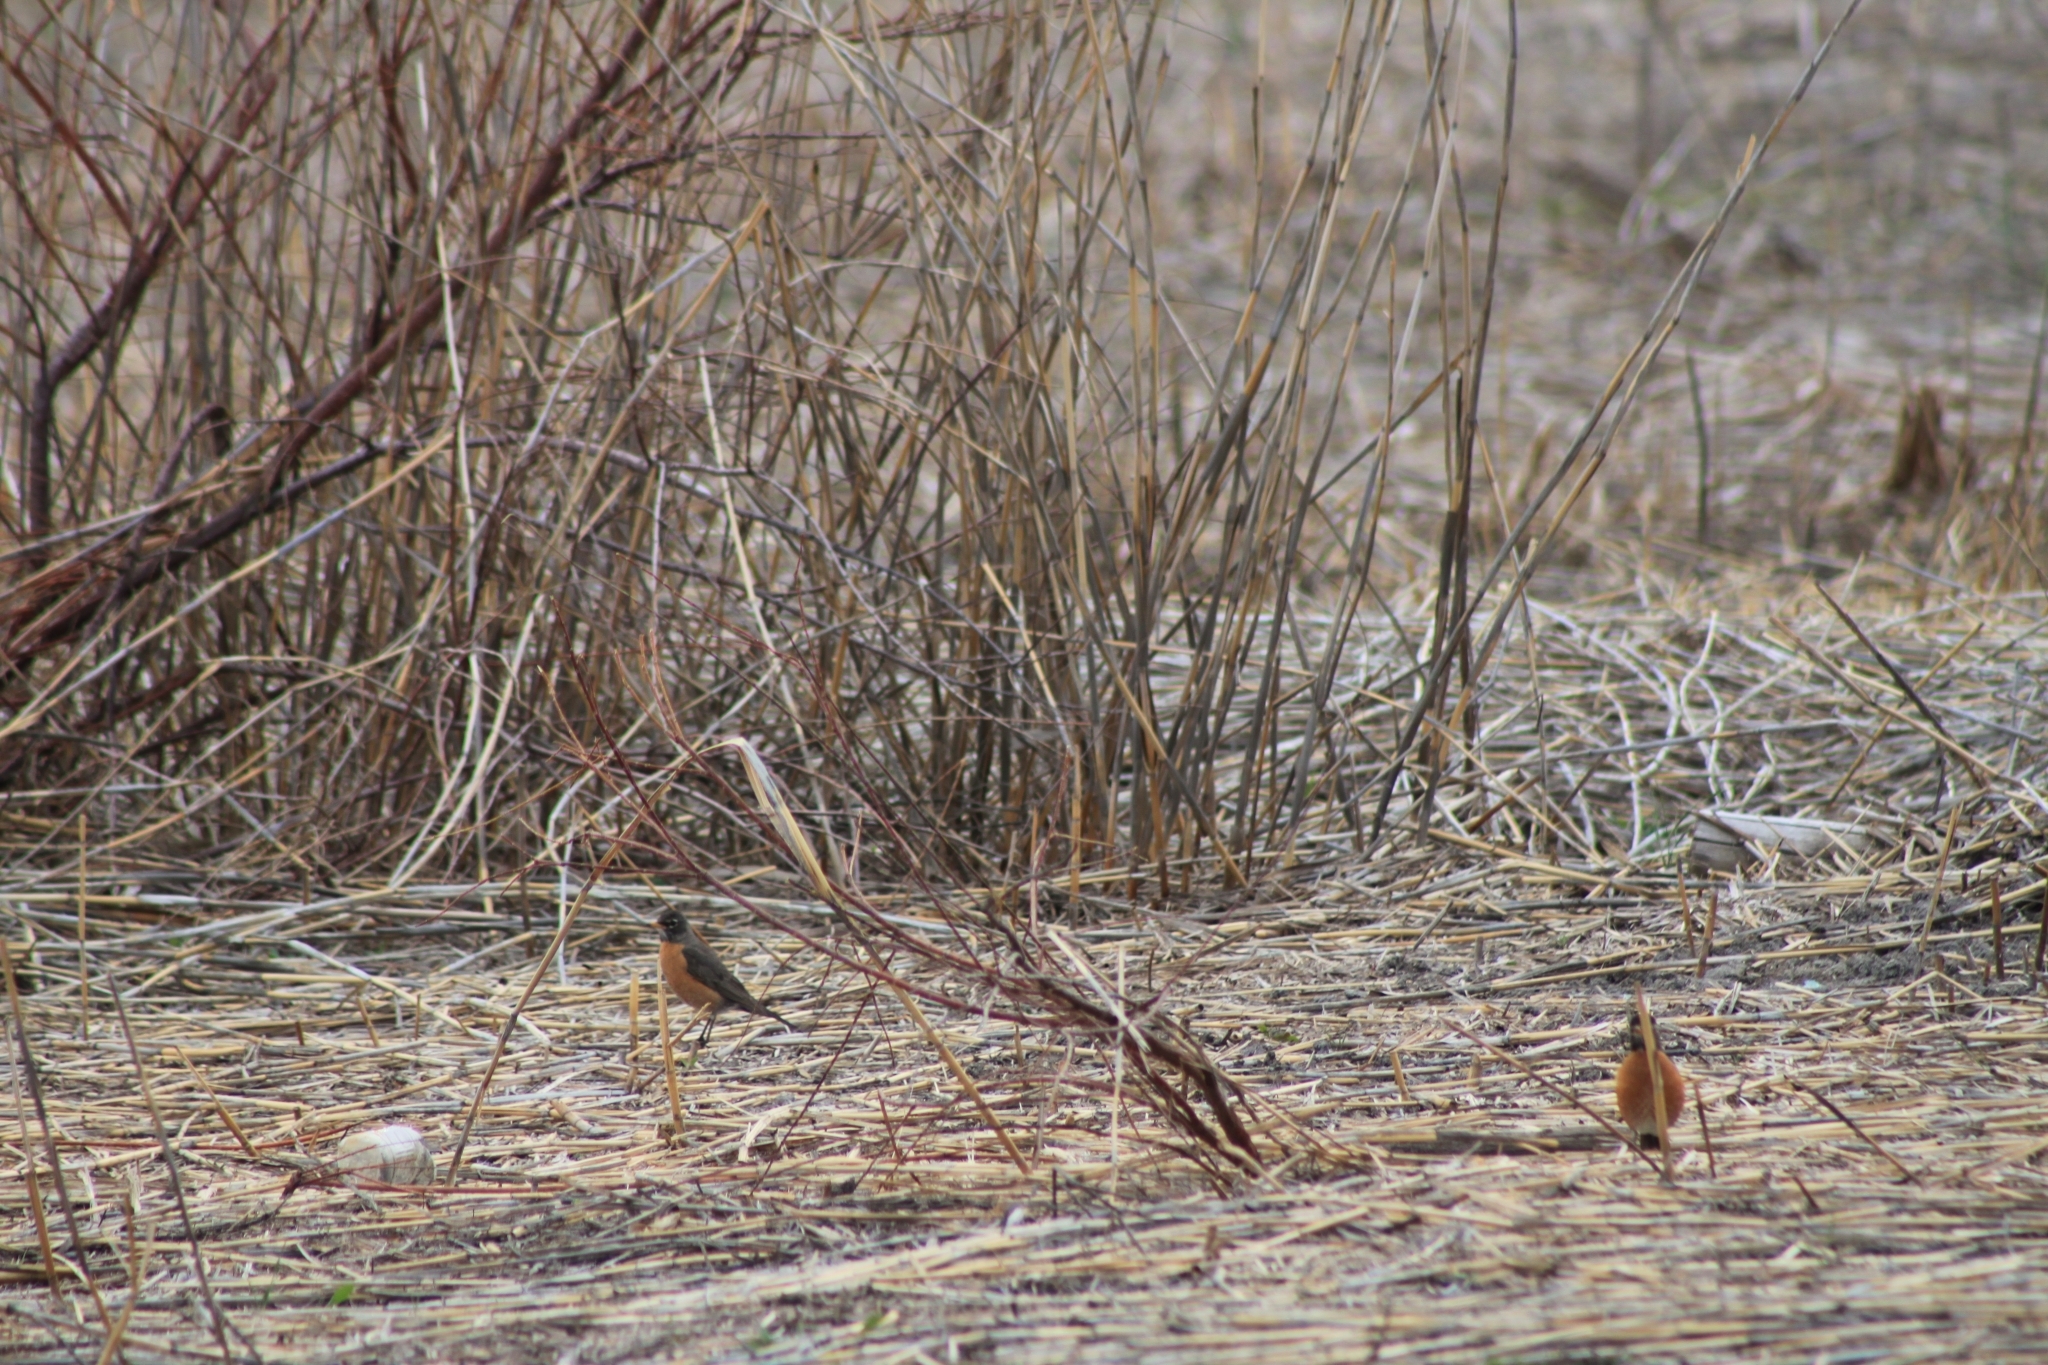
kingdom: Animalia
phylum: Chordata
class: Aves
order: Passeriformes
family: Turdidae
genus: Turdus
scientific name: Turdus migratorius
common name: American robin
